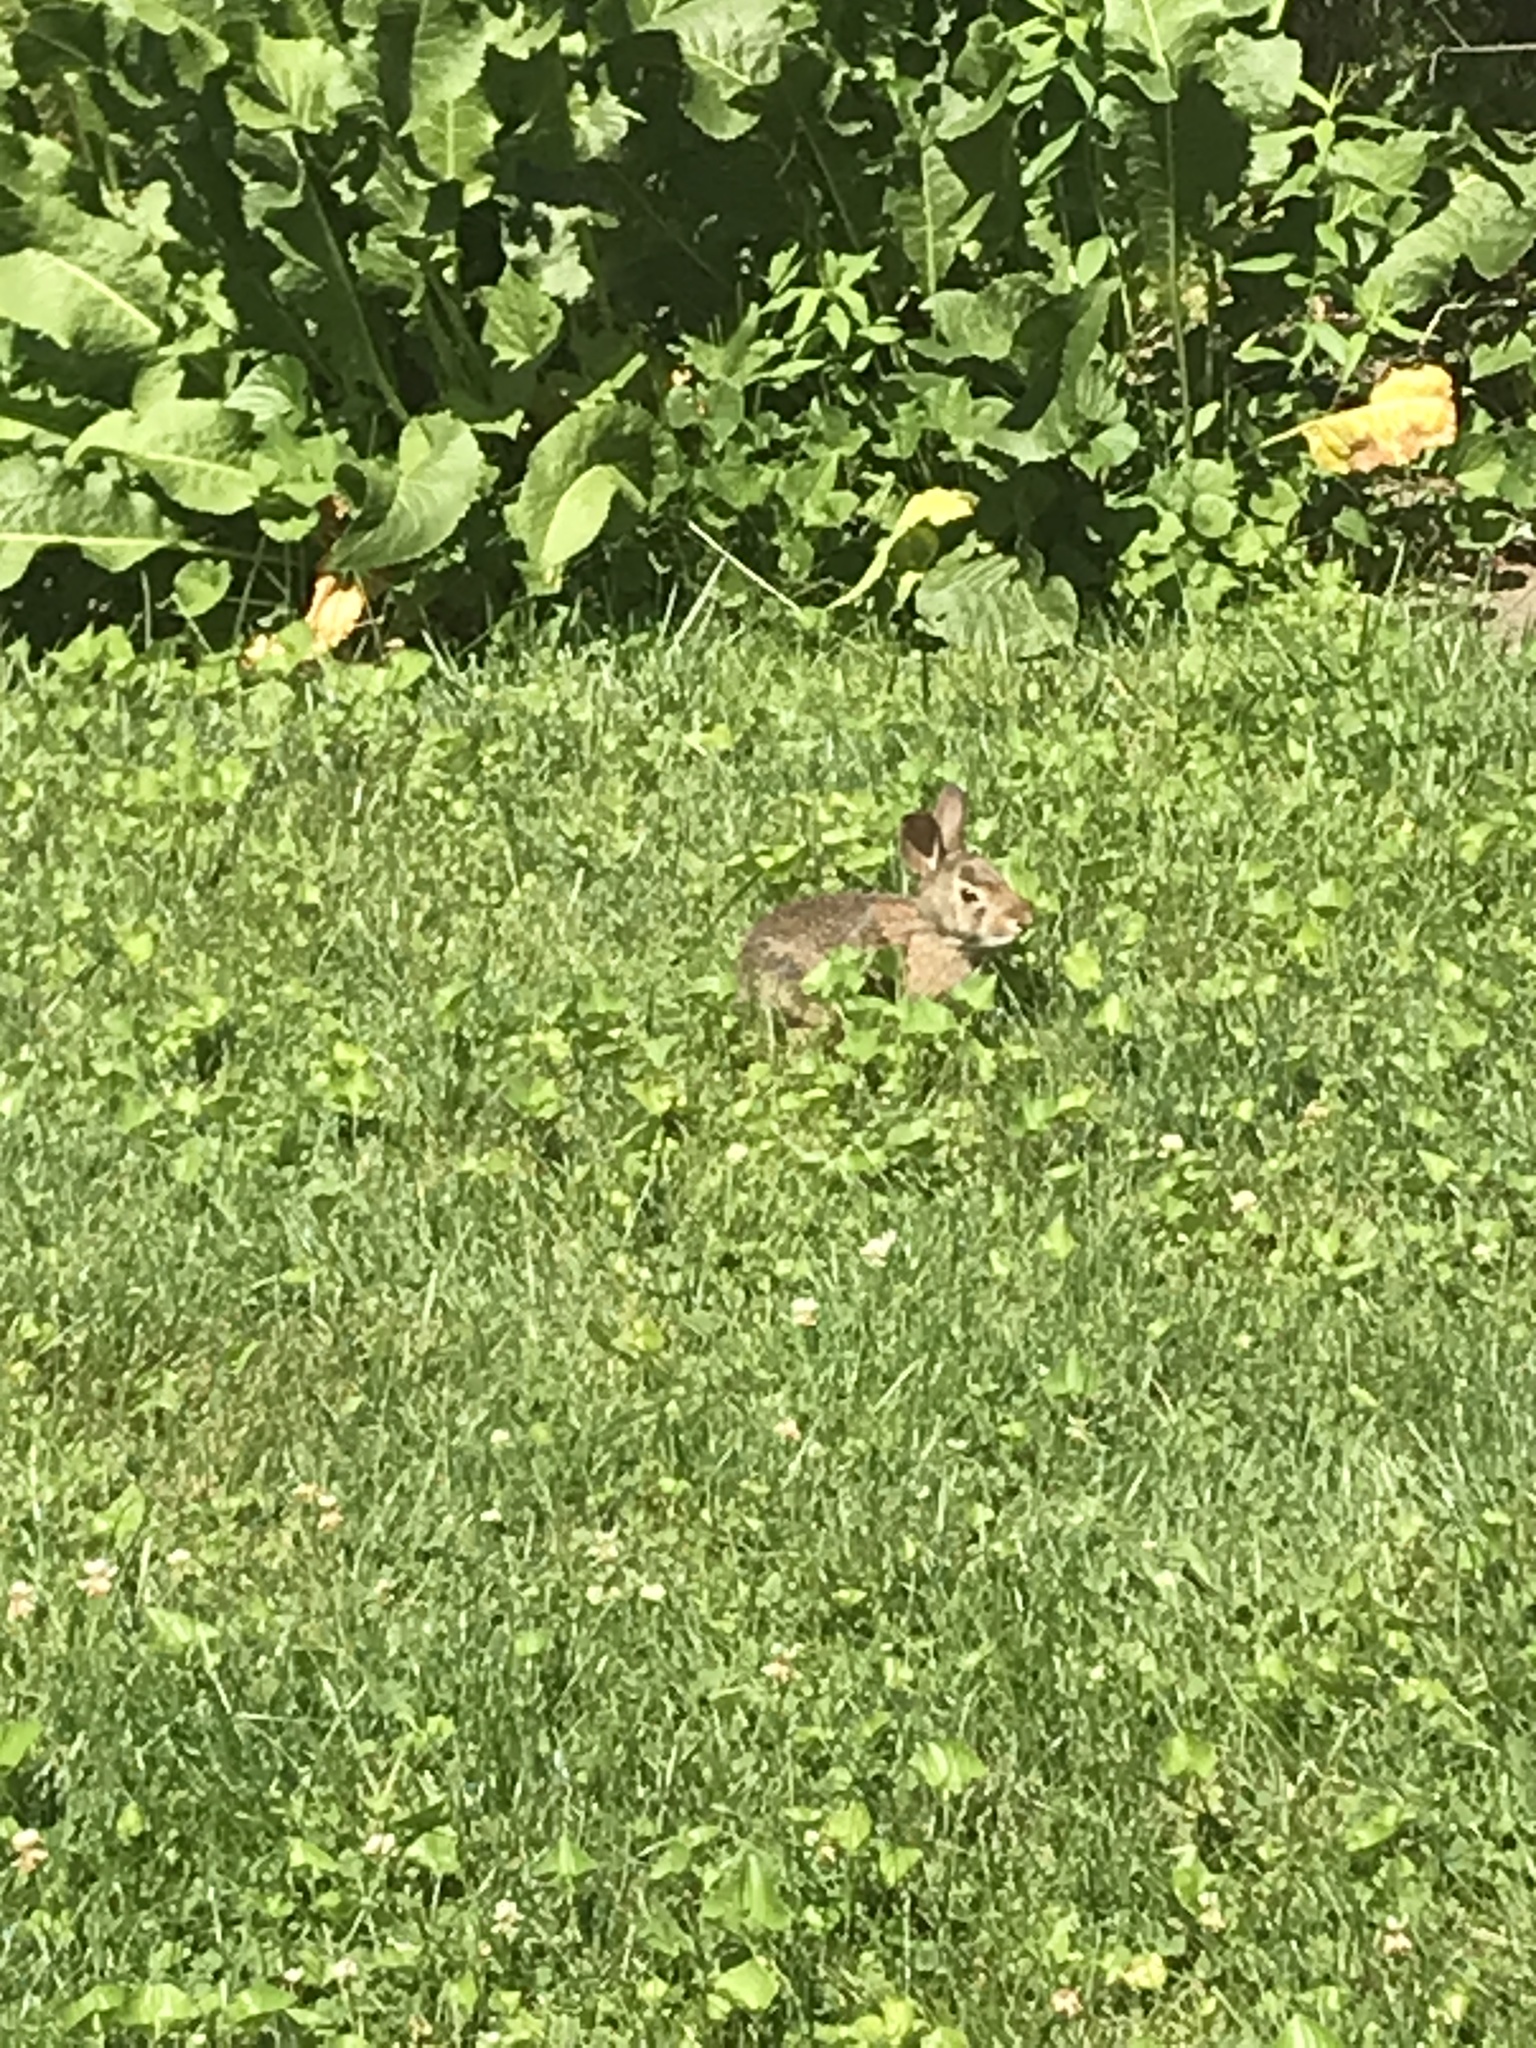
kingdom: Animalia
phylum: Chordata
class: Mammalia
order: Lagomorpha
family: Leporidae
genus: Sylvilagus
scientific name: Sylvilagus floridanus
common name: Eastern cottontail
